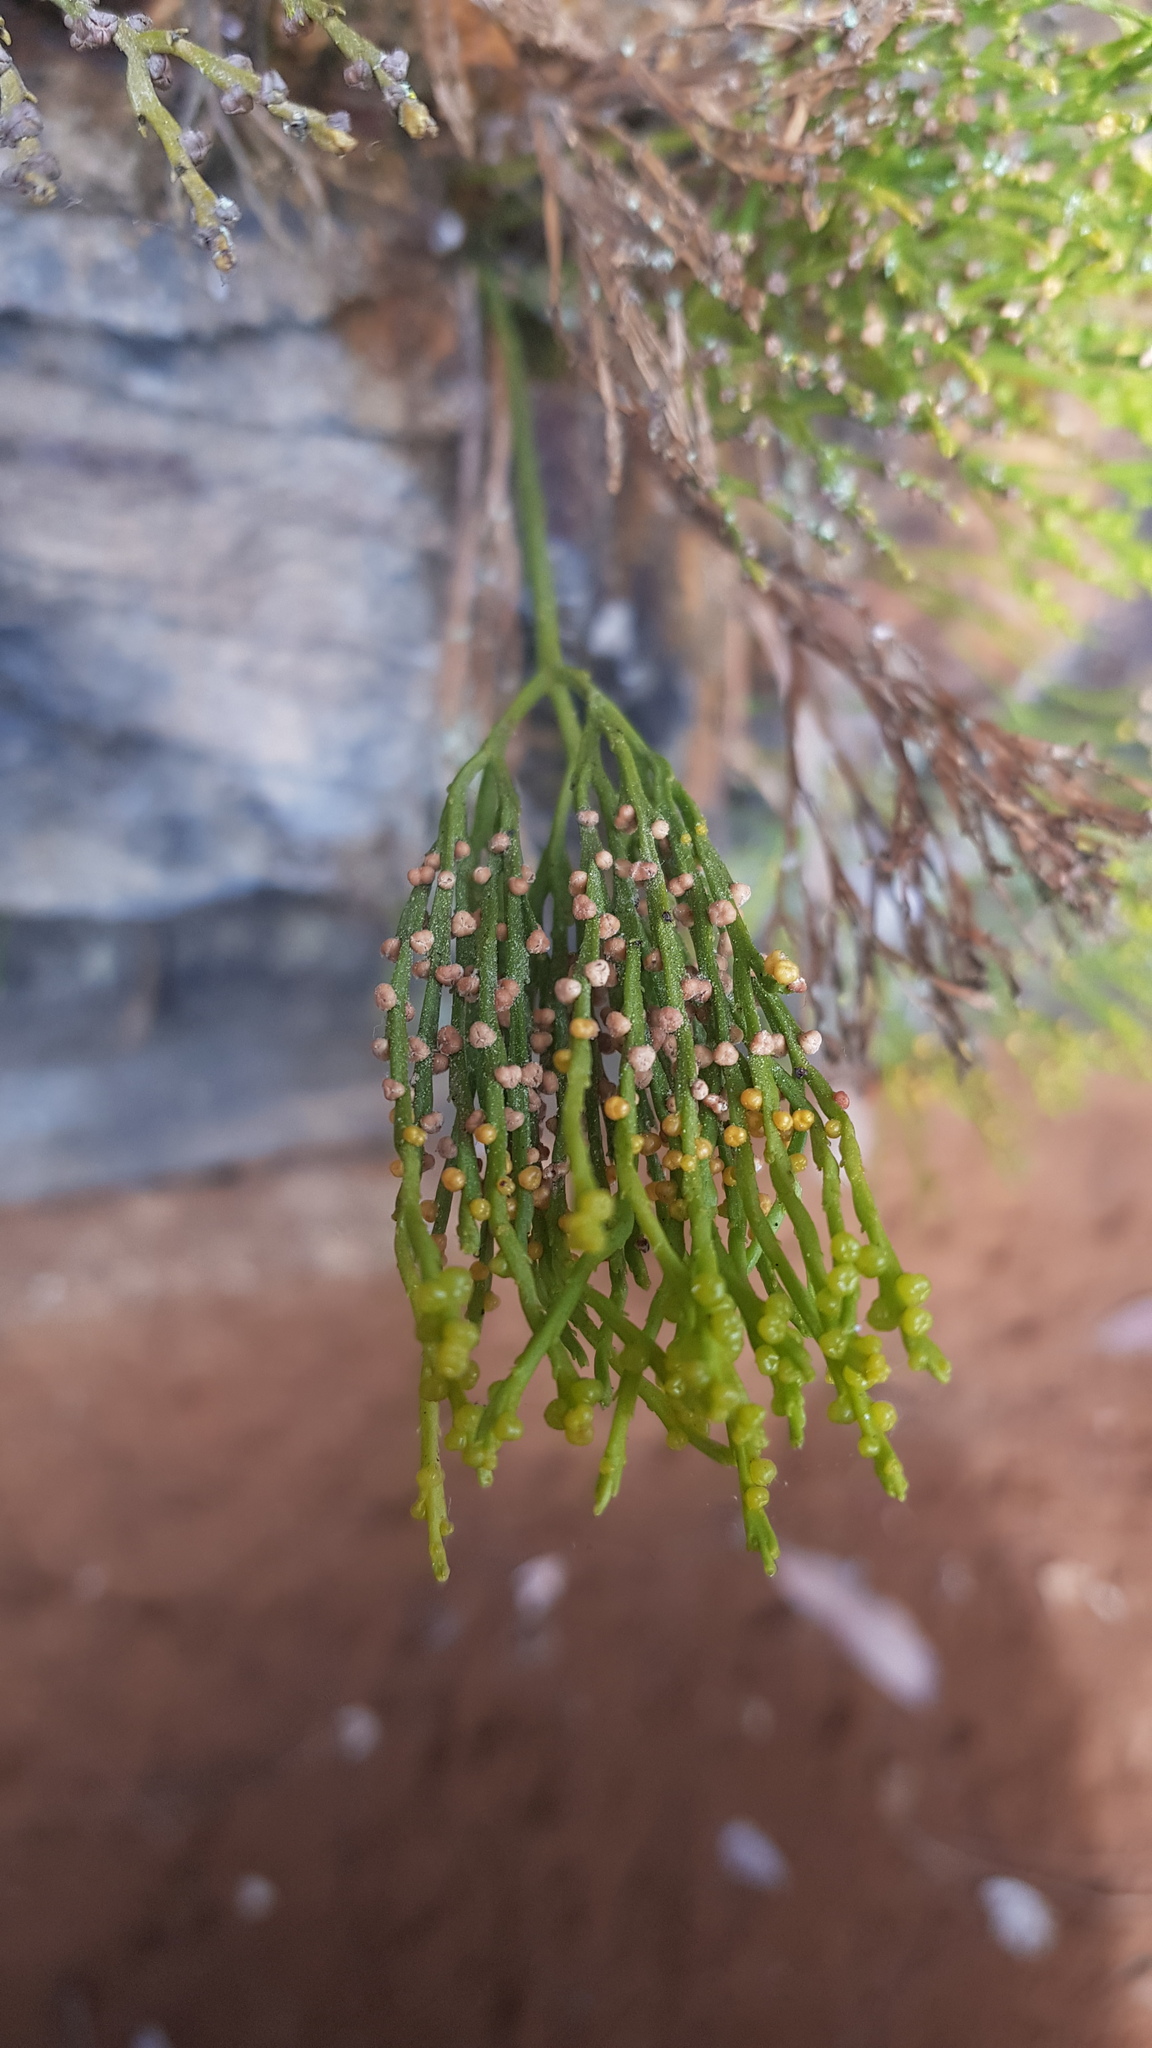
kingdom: Plantae
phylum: Tracheophyta
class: Polypodiopsida
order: Psilotales
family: Psilotaceae
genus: Psilotum
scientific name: Psilotum nudum
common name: Skeleton fork fern
